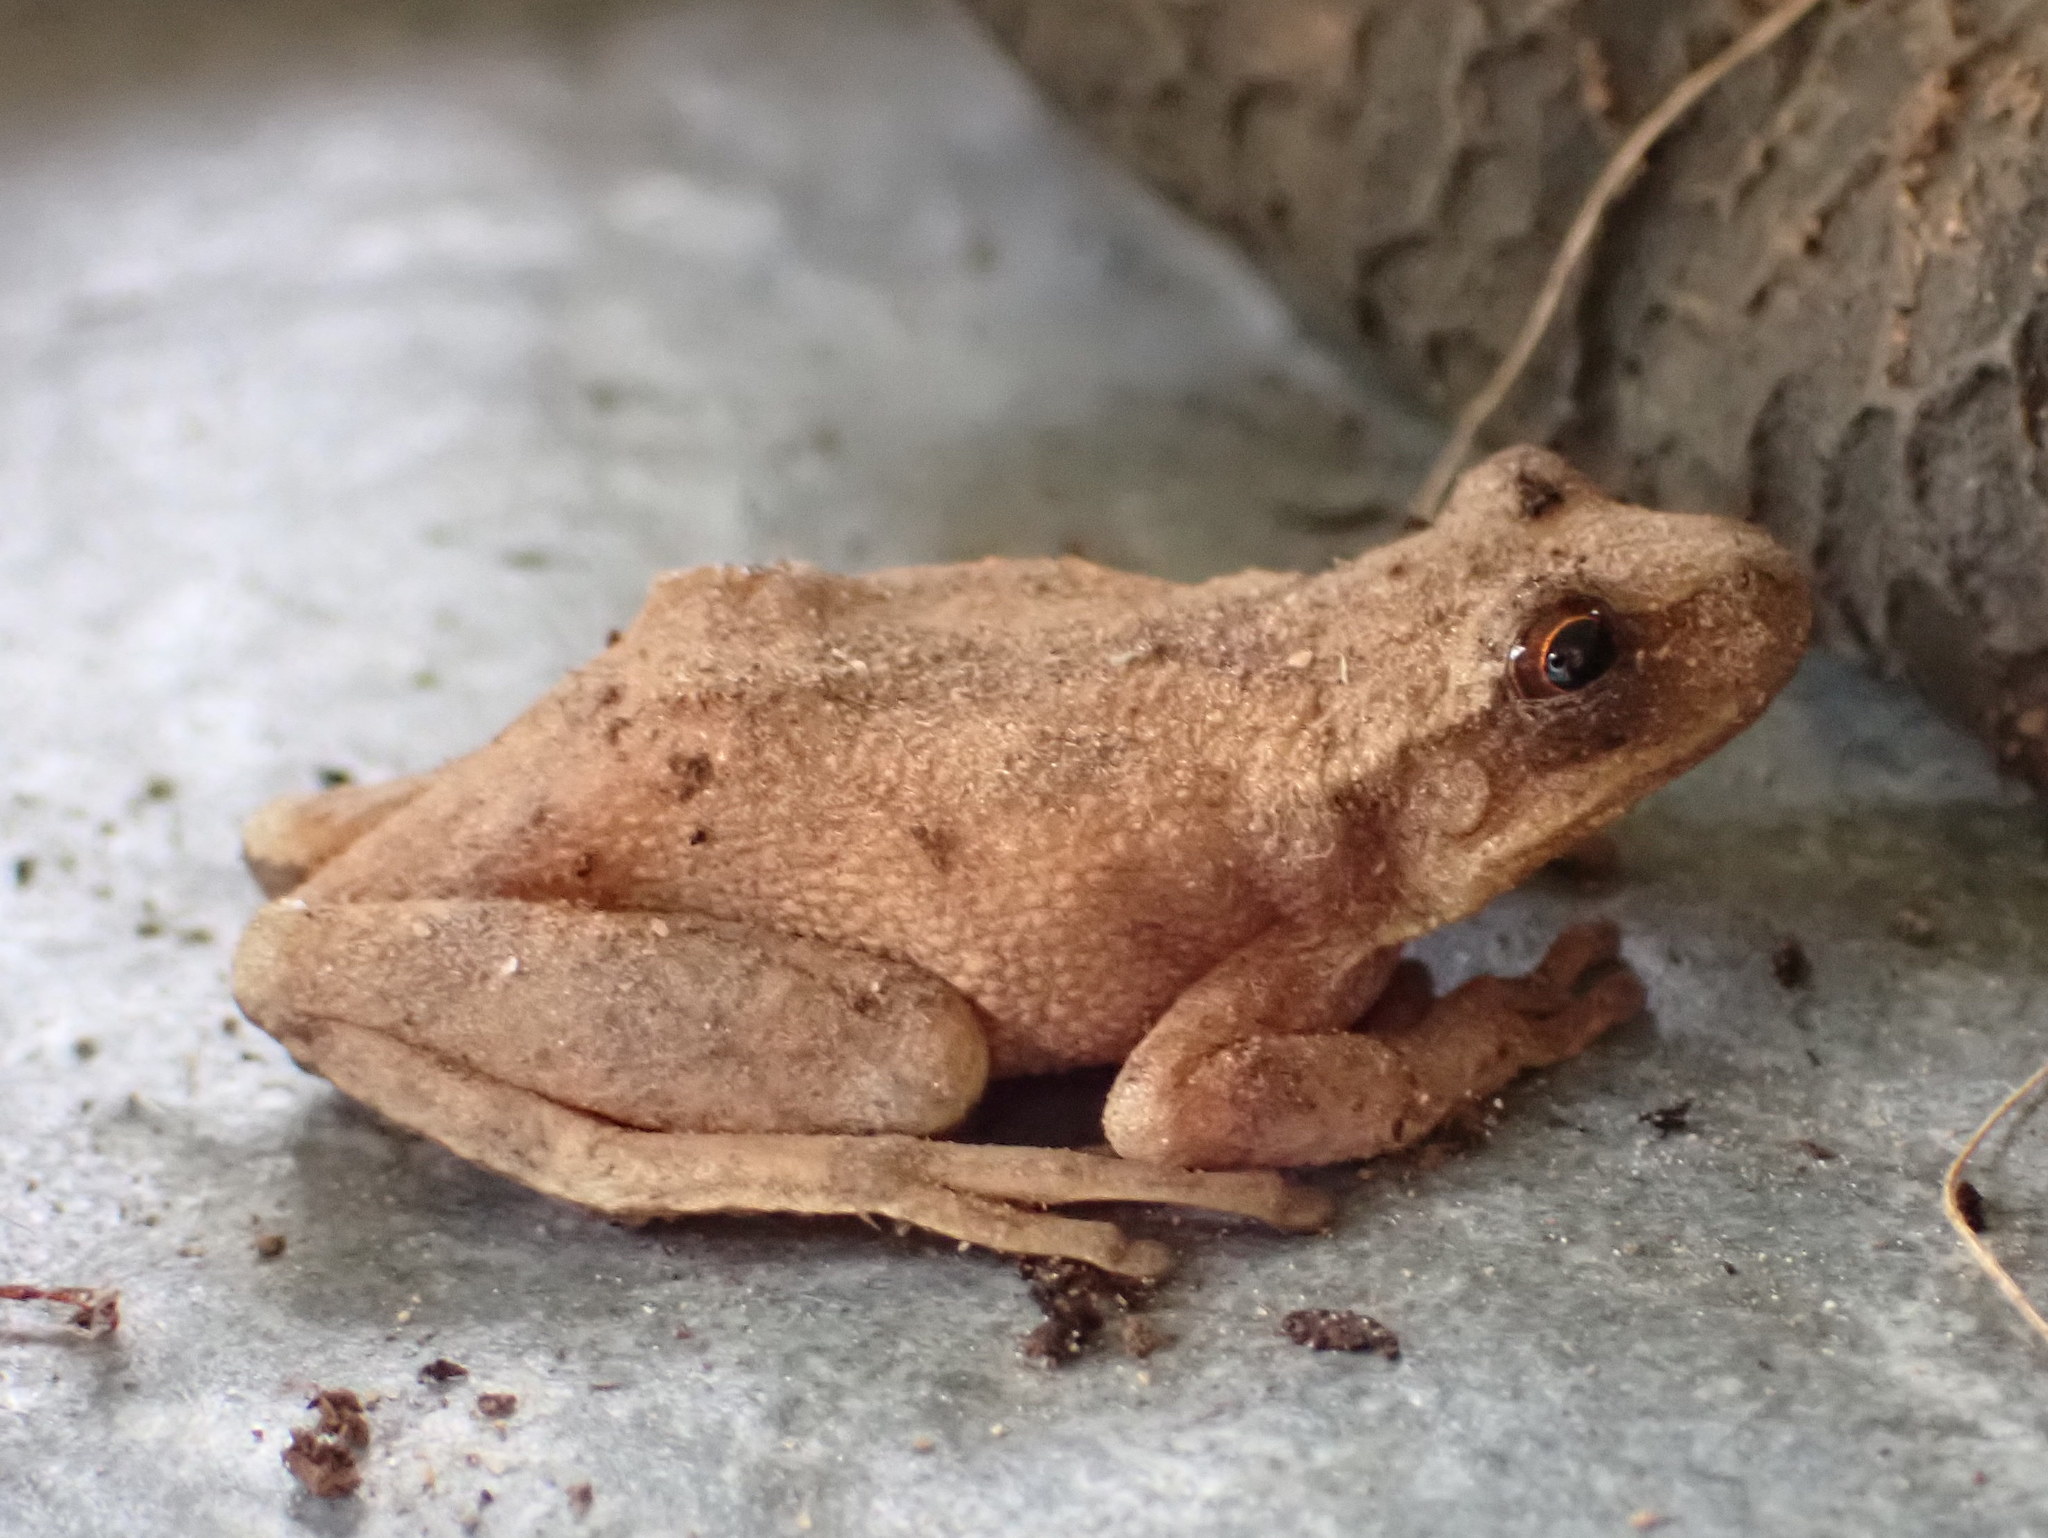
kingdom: Animalia
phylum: Chordata
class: Amphibia
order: Anura
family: Hylidae
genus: Pseudacris
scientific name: Pseudacris crucifer
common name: Spring peeper
